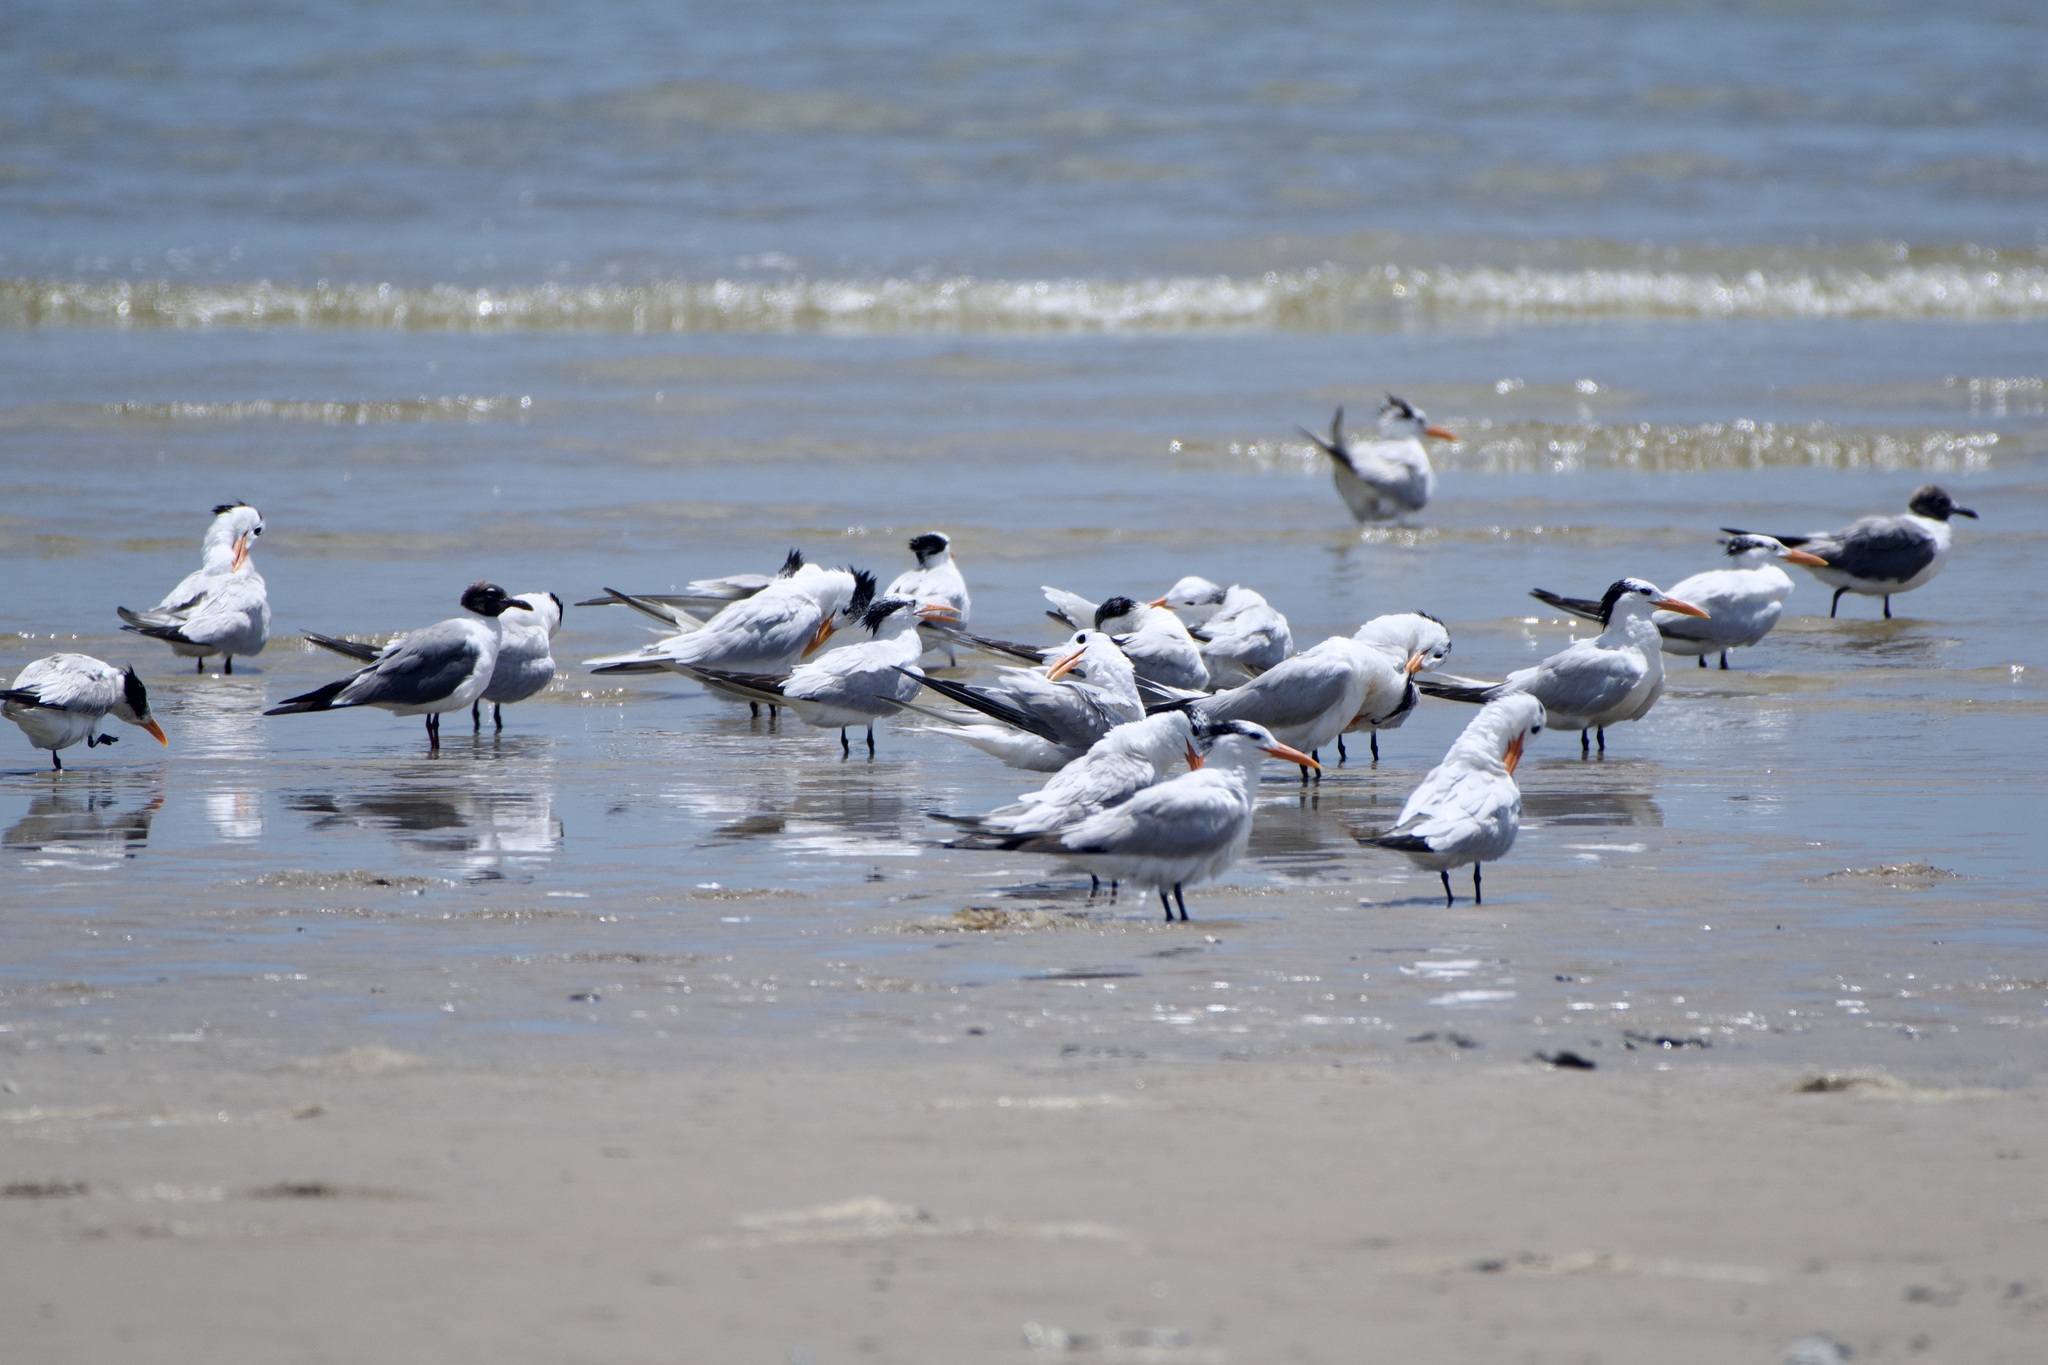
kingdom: Animalia
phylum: Chordata
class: Aves
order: Charadriiformes
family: Laridae
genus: Thalasseus
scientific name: Thalasseus maximus
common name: Royal tern
